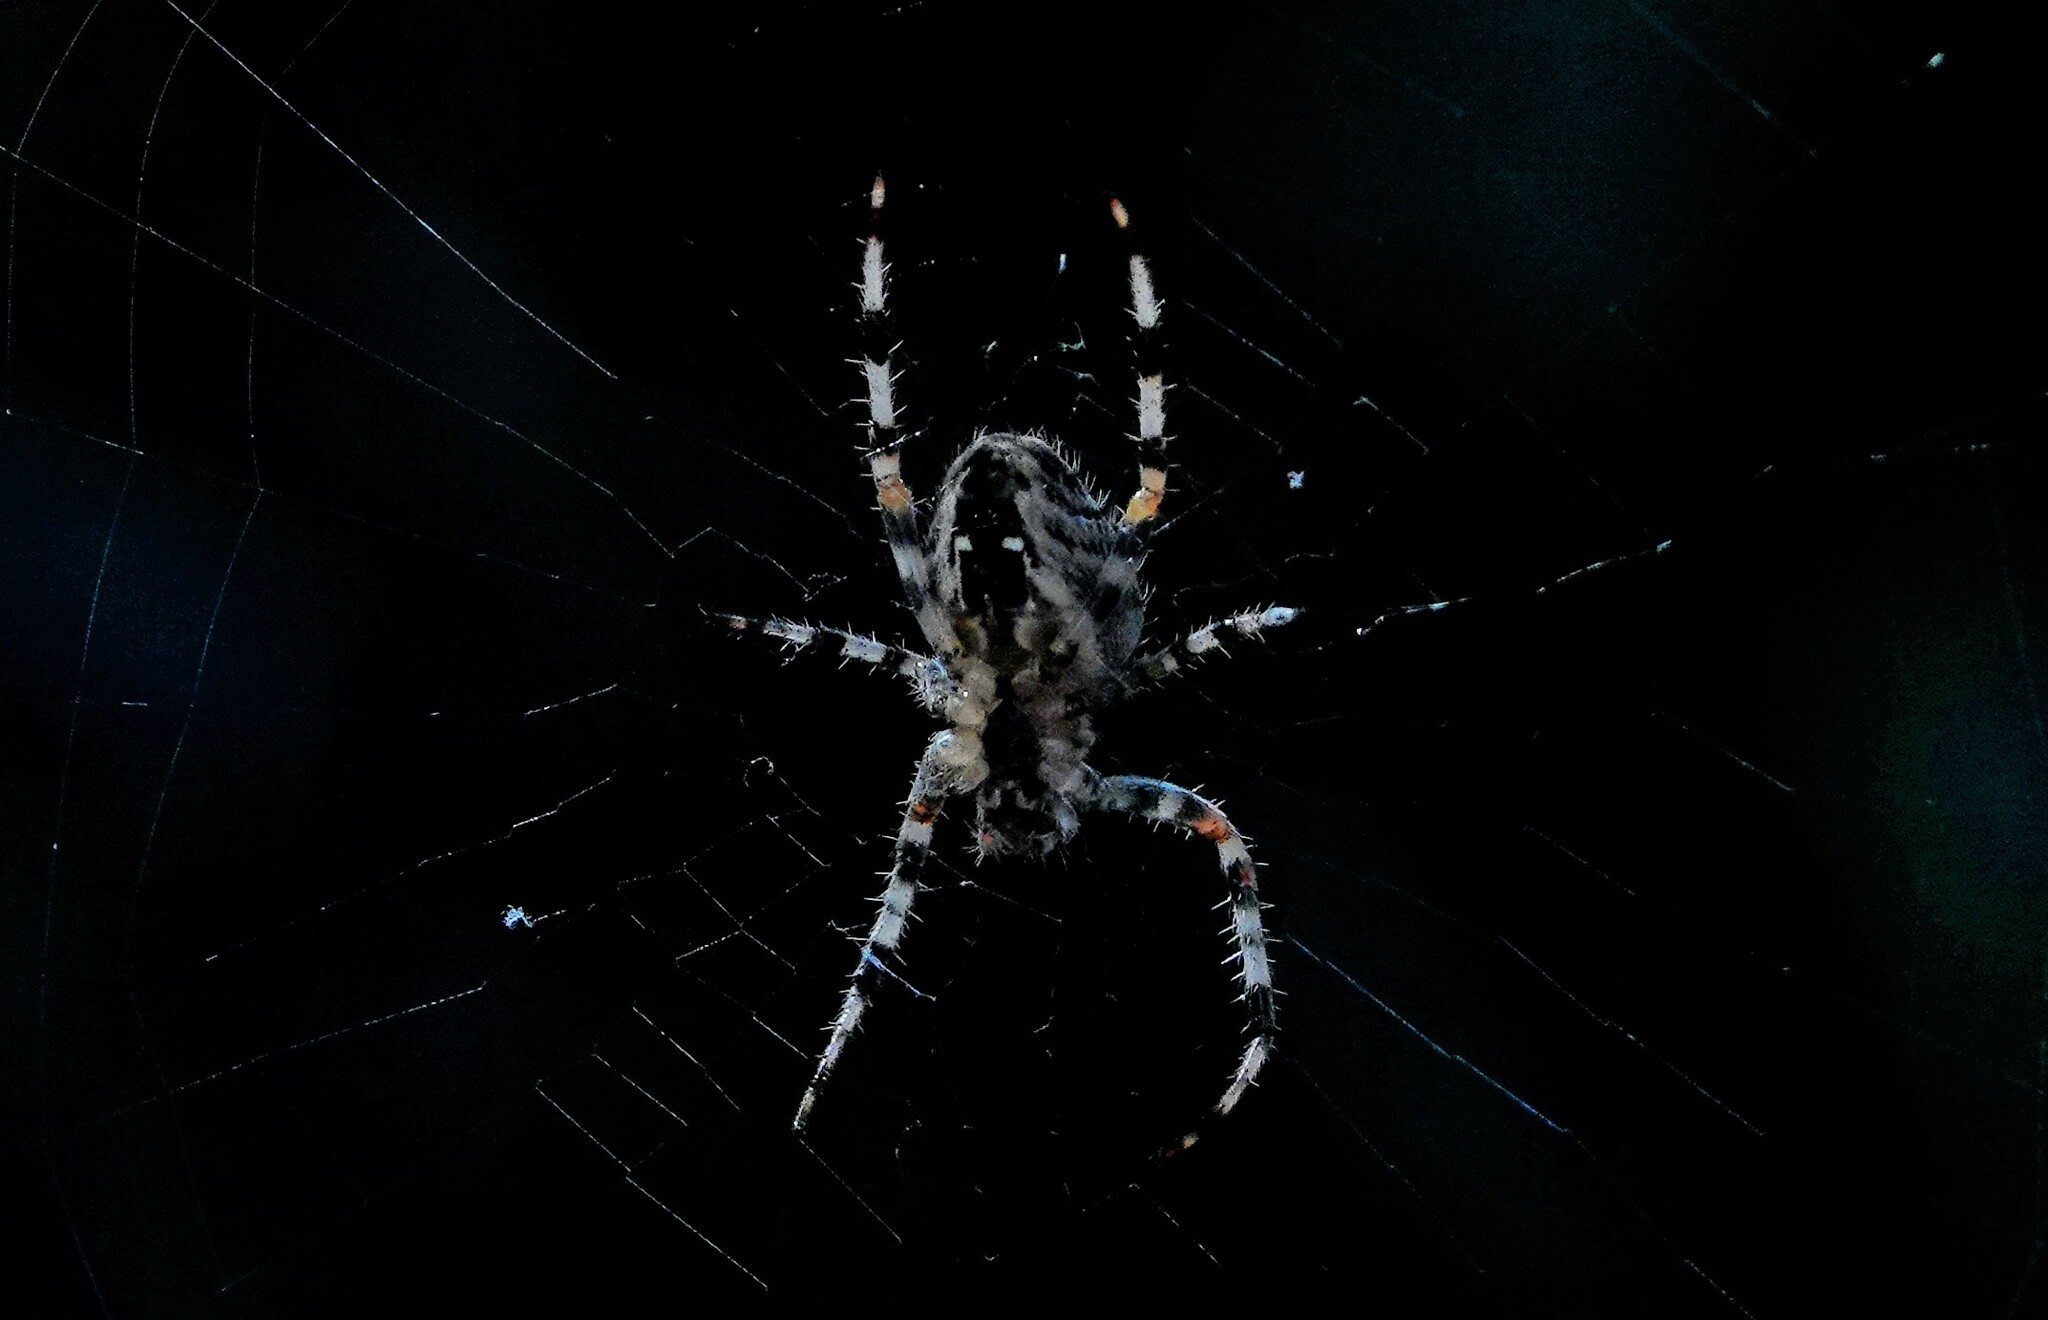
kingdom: Animalia
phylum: Arthropoda
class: Arachnida
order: Araneae
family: Araneidae
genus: Araneus
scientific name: Araneus diadematus
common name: Cross orbweaver
